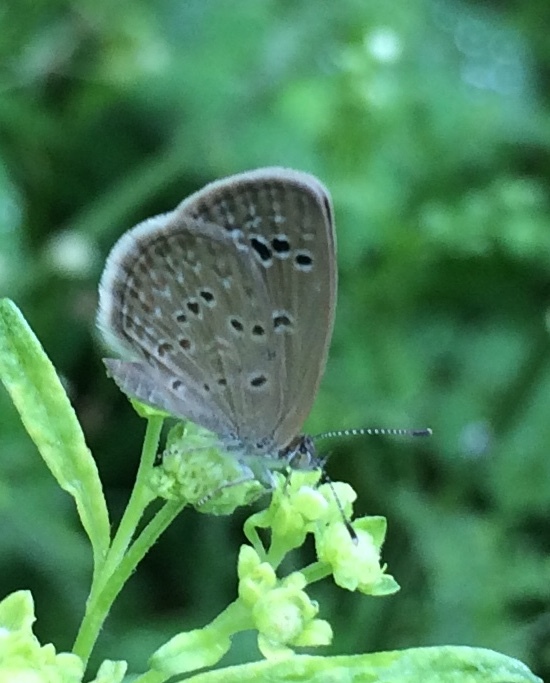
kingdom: Animalia
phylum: Arthropoda
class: Insecta
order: Lepidoptera
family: Lycaenidae
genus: Zizina
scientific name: Zizina otis
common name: Lesser grass blue
